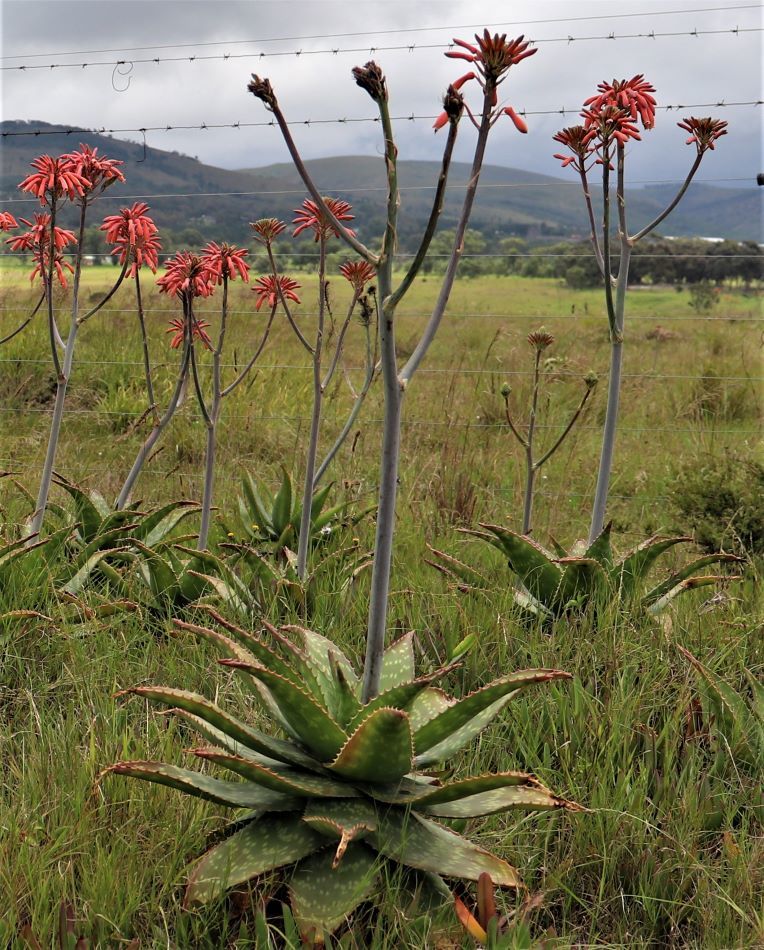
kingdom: Plantae
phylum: Tracheophyta
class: Liliopsida
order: Asparagales
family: Asphodelaceae
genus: Aloe
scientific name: Aloe maculata
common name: Broadleaf aloe
